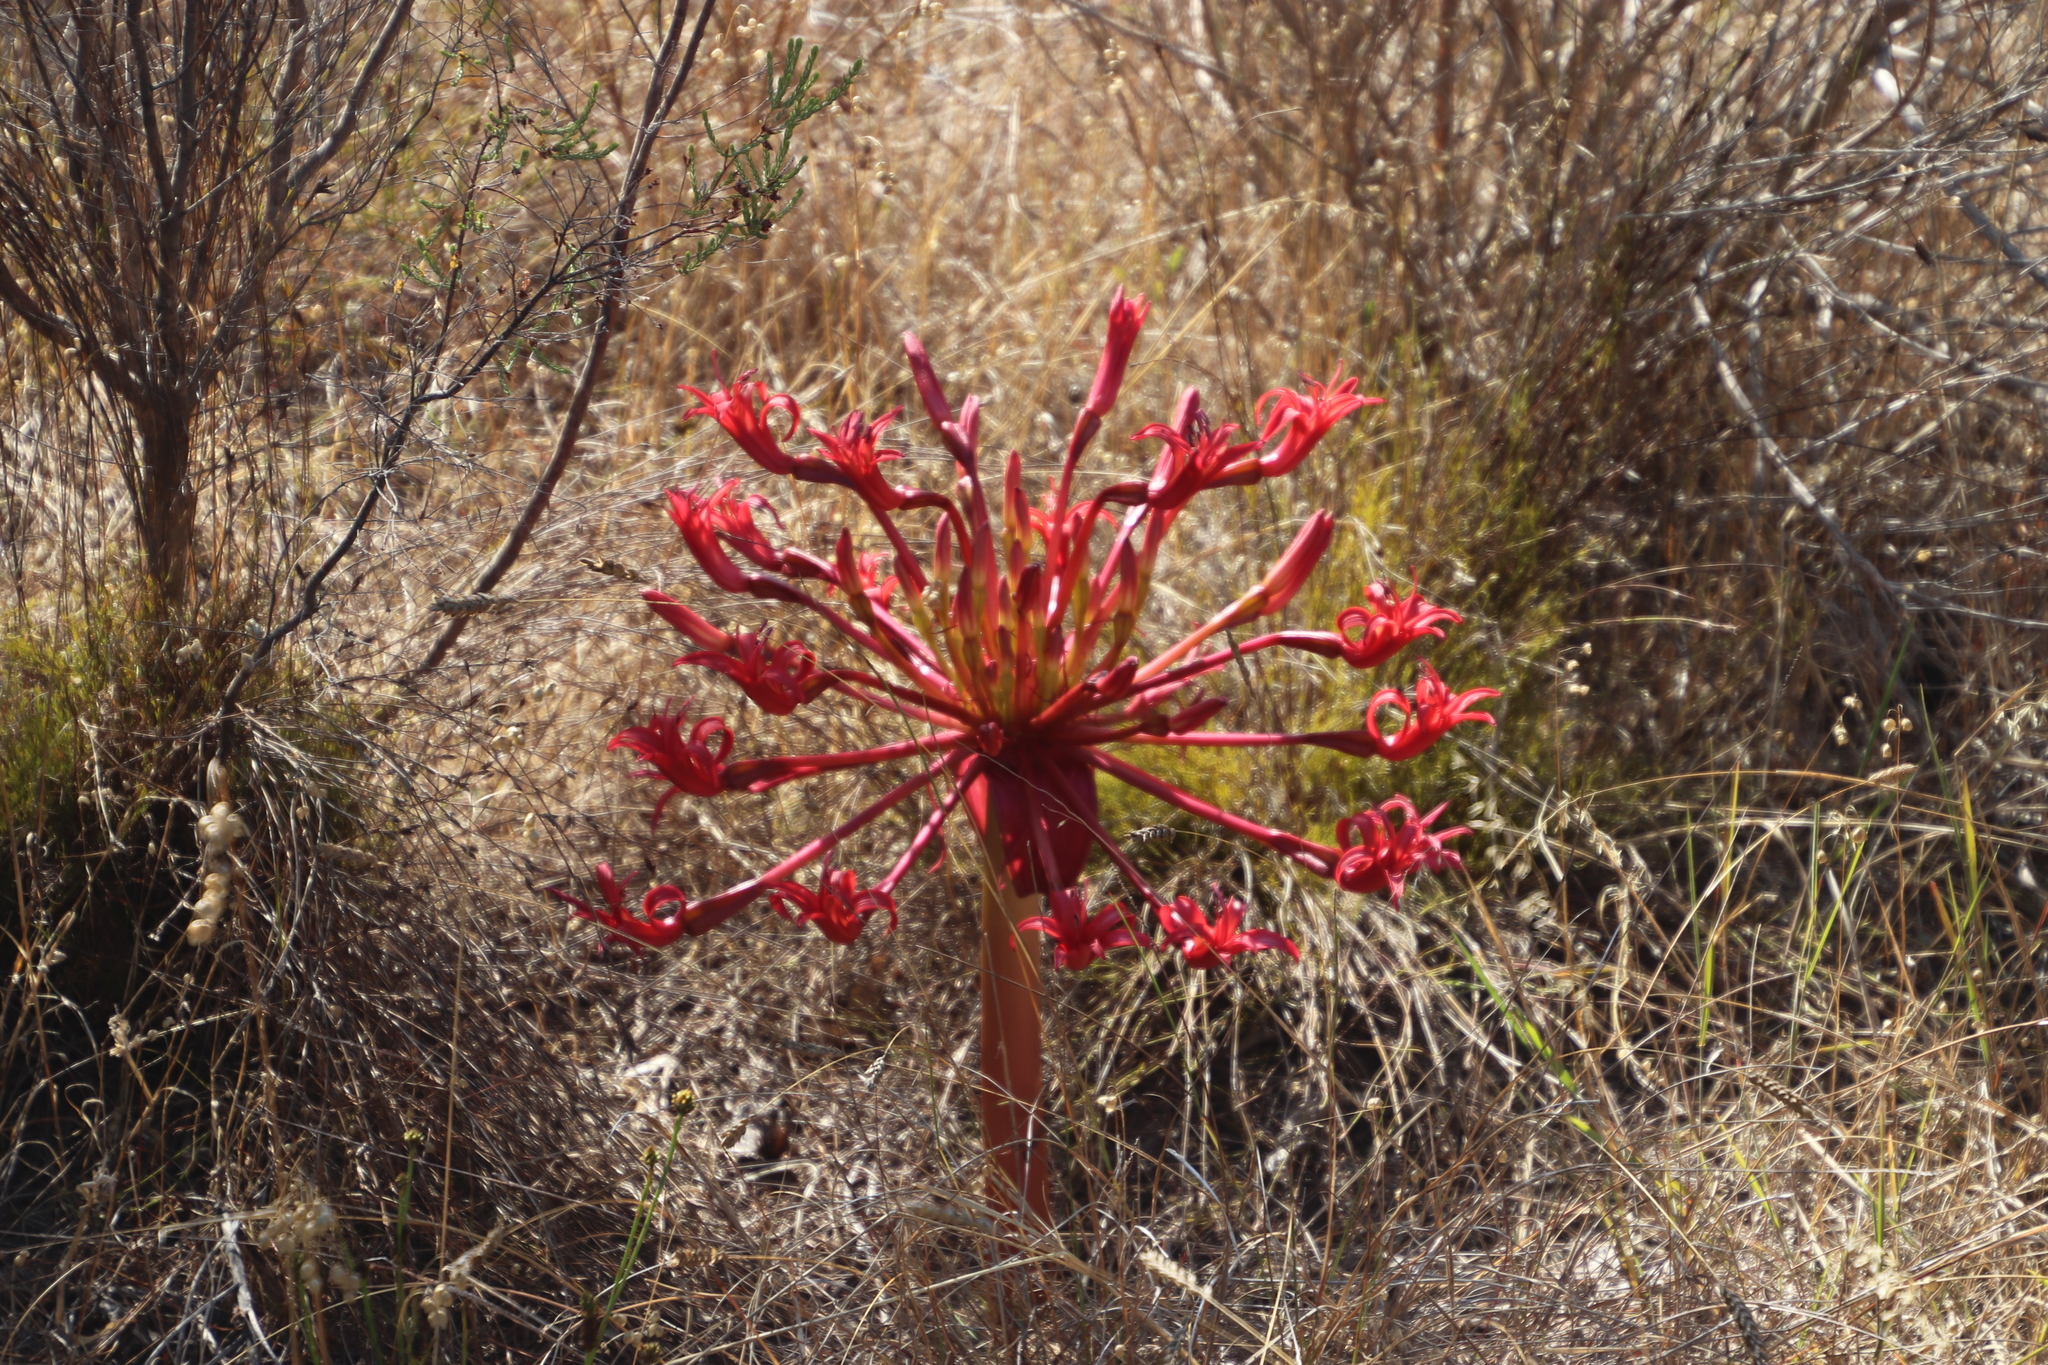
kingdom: Plantae
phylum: Tracheophyta
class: Liliopsida
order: Asparagales
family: Amaryllidaceae
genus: Brunsvigia
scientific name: Brunsvigia orientalis
